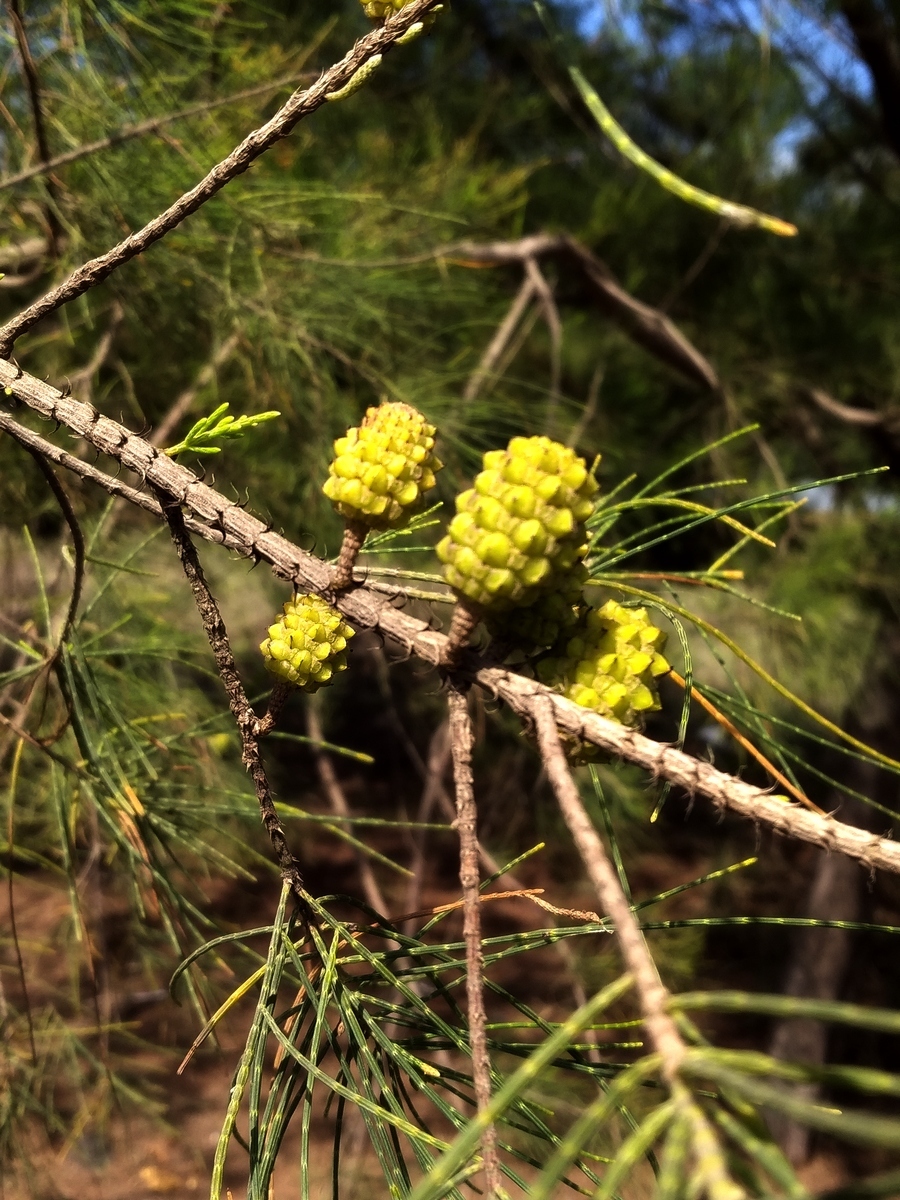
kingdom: Plantae
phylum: Tracheophyta
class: Magnoliopsida
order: Fagales
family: Casuarinaceae
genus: Casuarina
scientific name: Casuarina equisetifolia
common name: Beach sheoak
